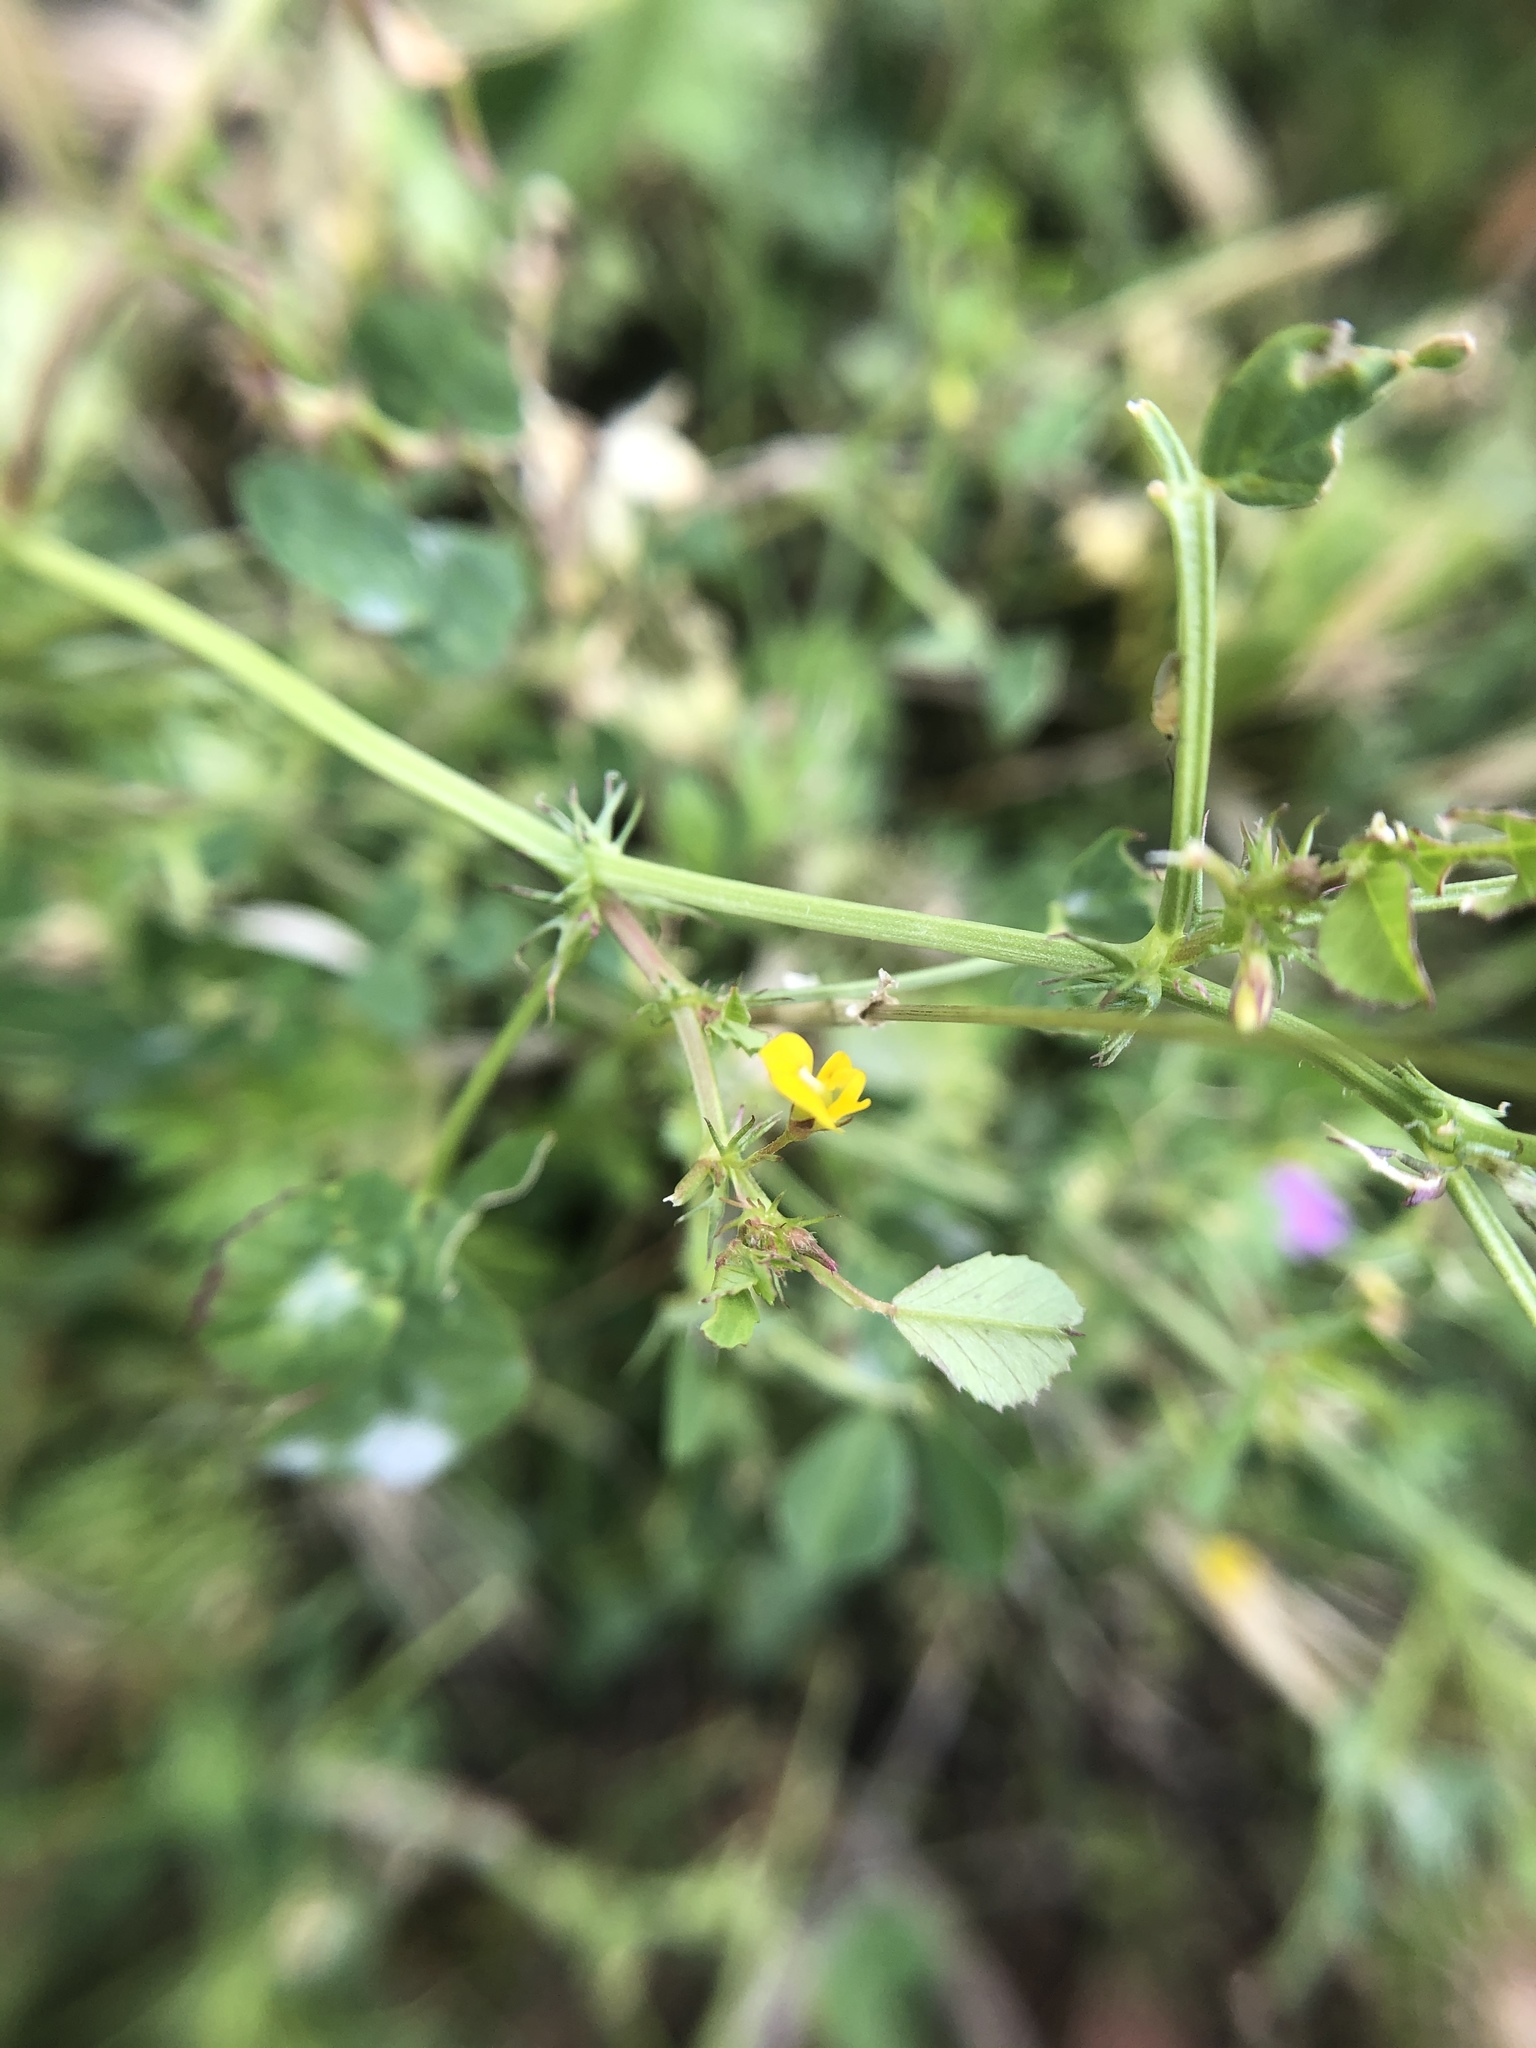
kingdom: Plantae
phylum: Tracheophyta
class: Magnoliopsida
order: Fabales
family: Fabaceae
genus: Medicago
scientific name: Medicago orbicularis
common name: Button medick
